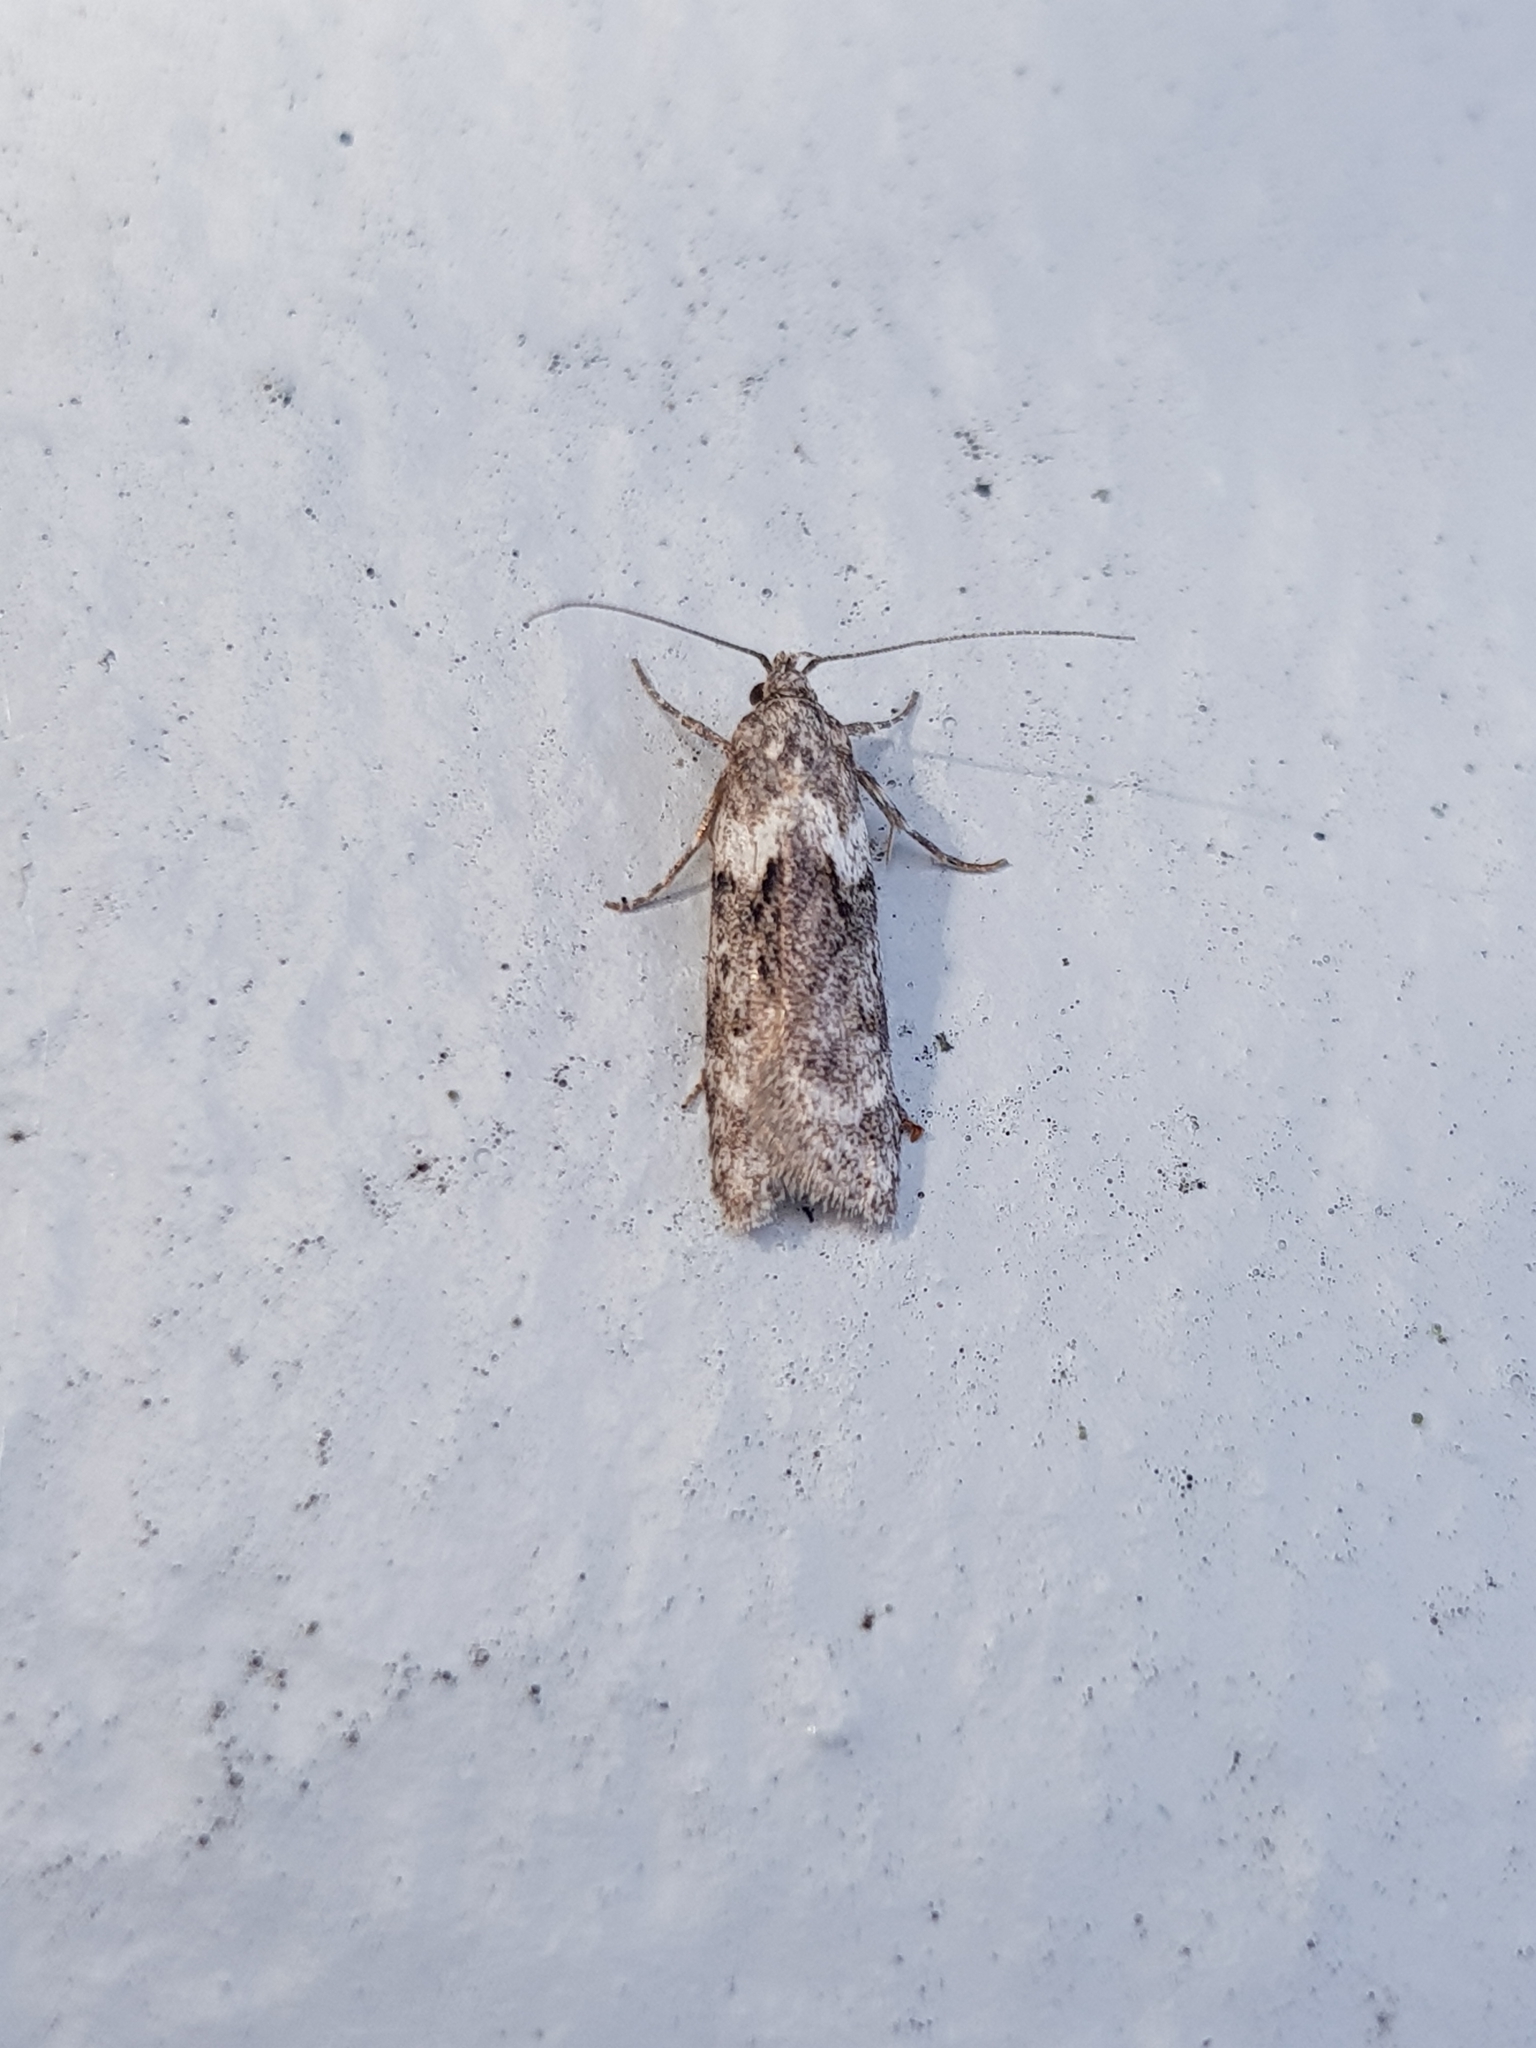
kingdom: Animalia
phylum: Arthropoda
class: Insecta
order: Lepidoptera
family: Oecophoridae
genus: Izatha
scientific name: Izatha convulsella
